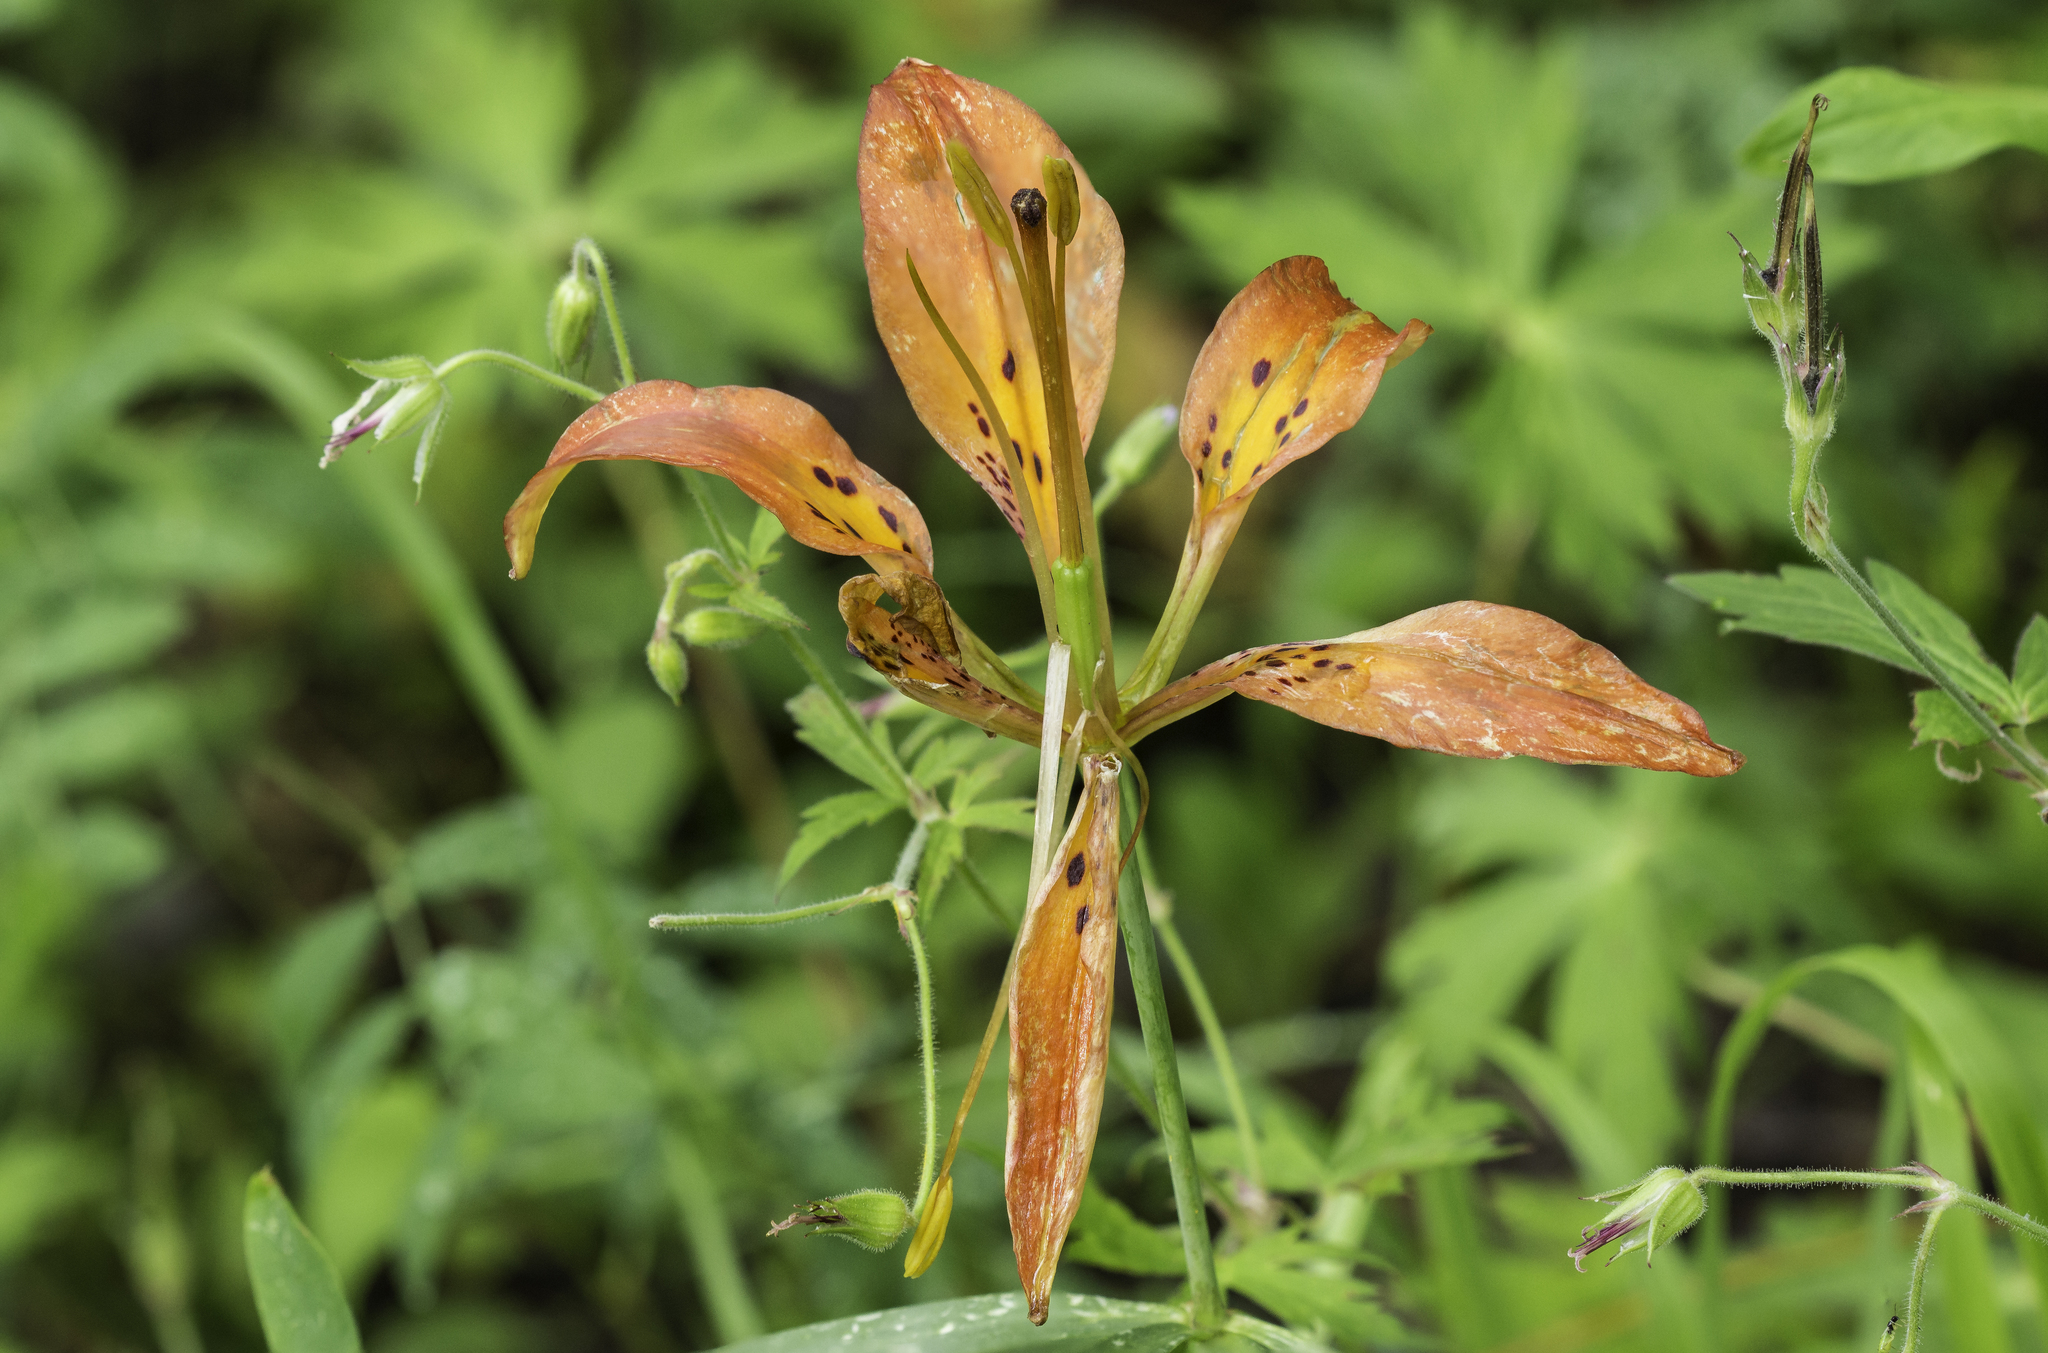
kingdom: Plantae
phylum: Tracheophyta
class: Liliopsida
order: Liliales
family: Liliaceae
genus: Lilium
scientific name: Lilium philadelphicum
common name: Red lily
